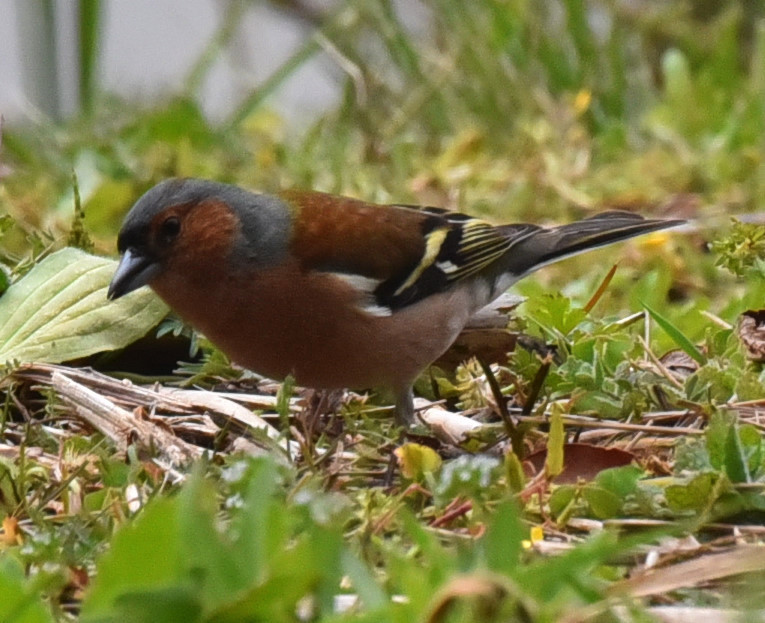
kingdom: Animalia
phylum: Chordata
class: Aves
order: Passeriformes
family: Fringillidae
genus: Fringilla
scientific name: Fringilla coelebs
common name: Common chaffinch
